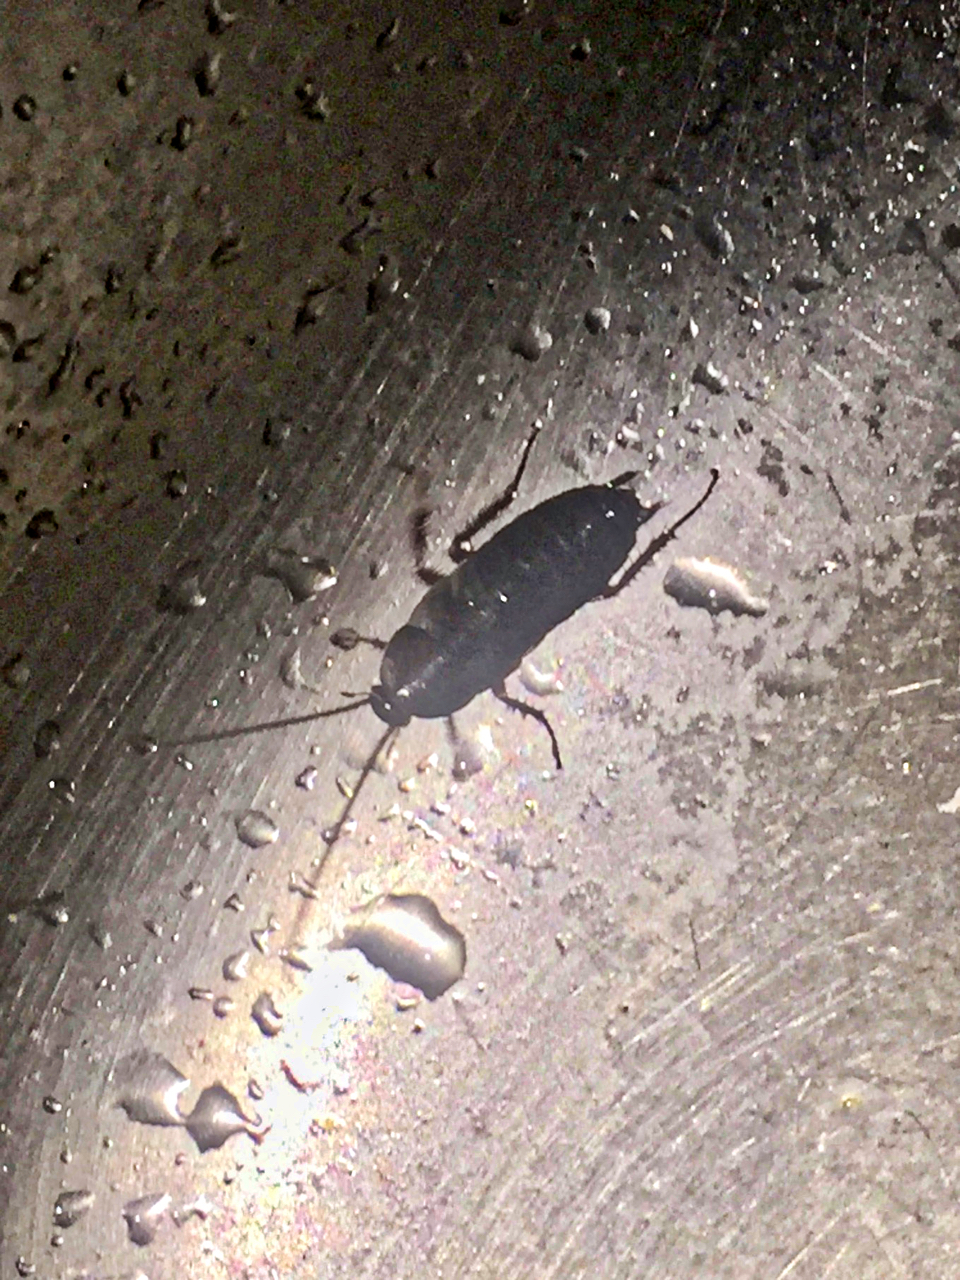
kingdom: Animalia
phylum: Arthropoda
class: Insecta
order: Blattodea
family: Blattidae
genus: Blatta
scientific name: Blatta orientalis
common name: Oriental cockroach
